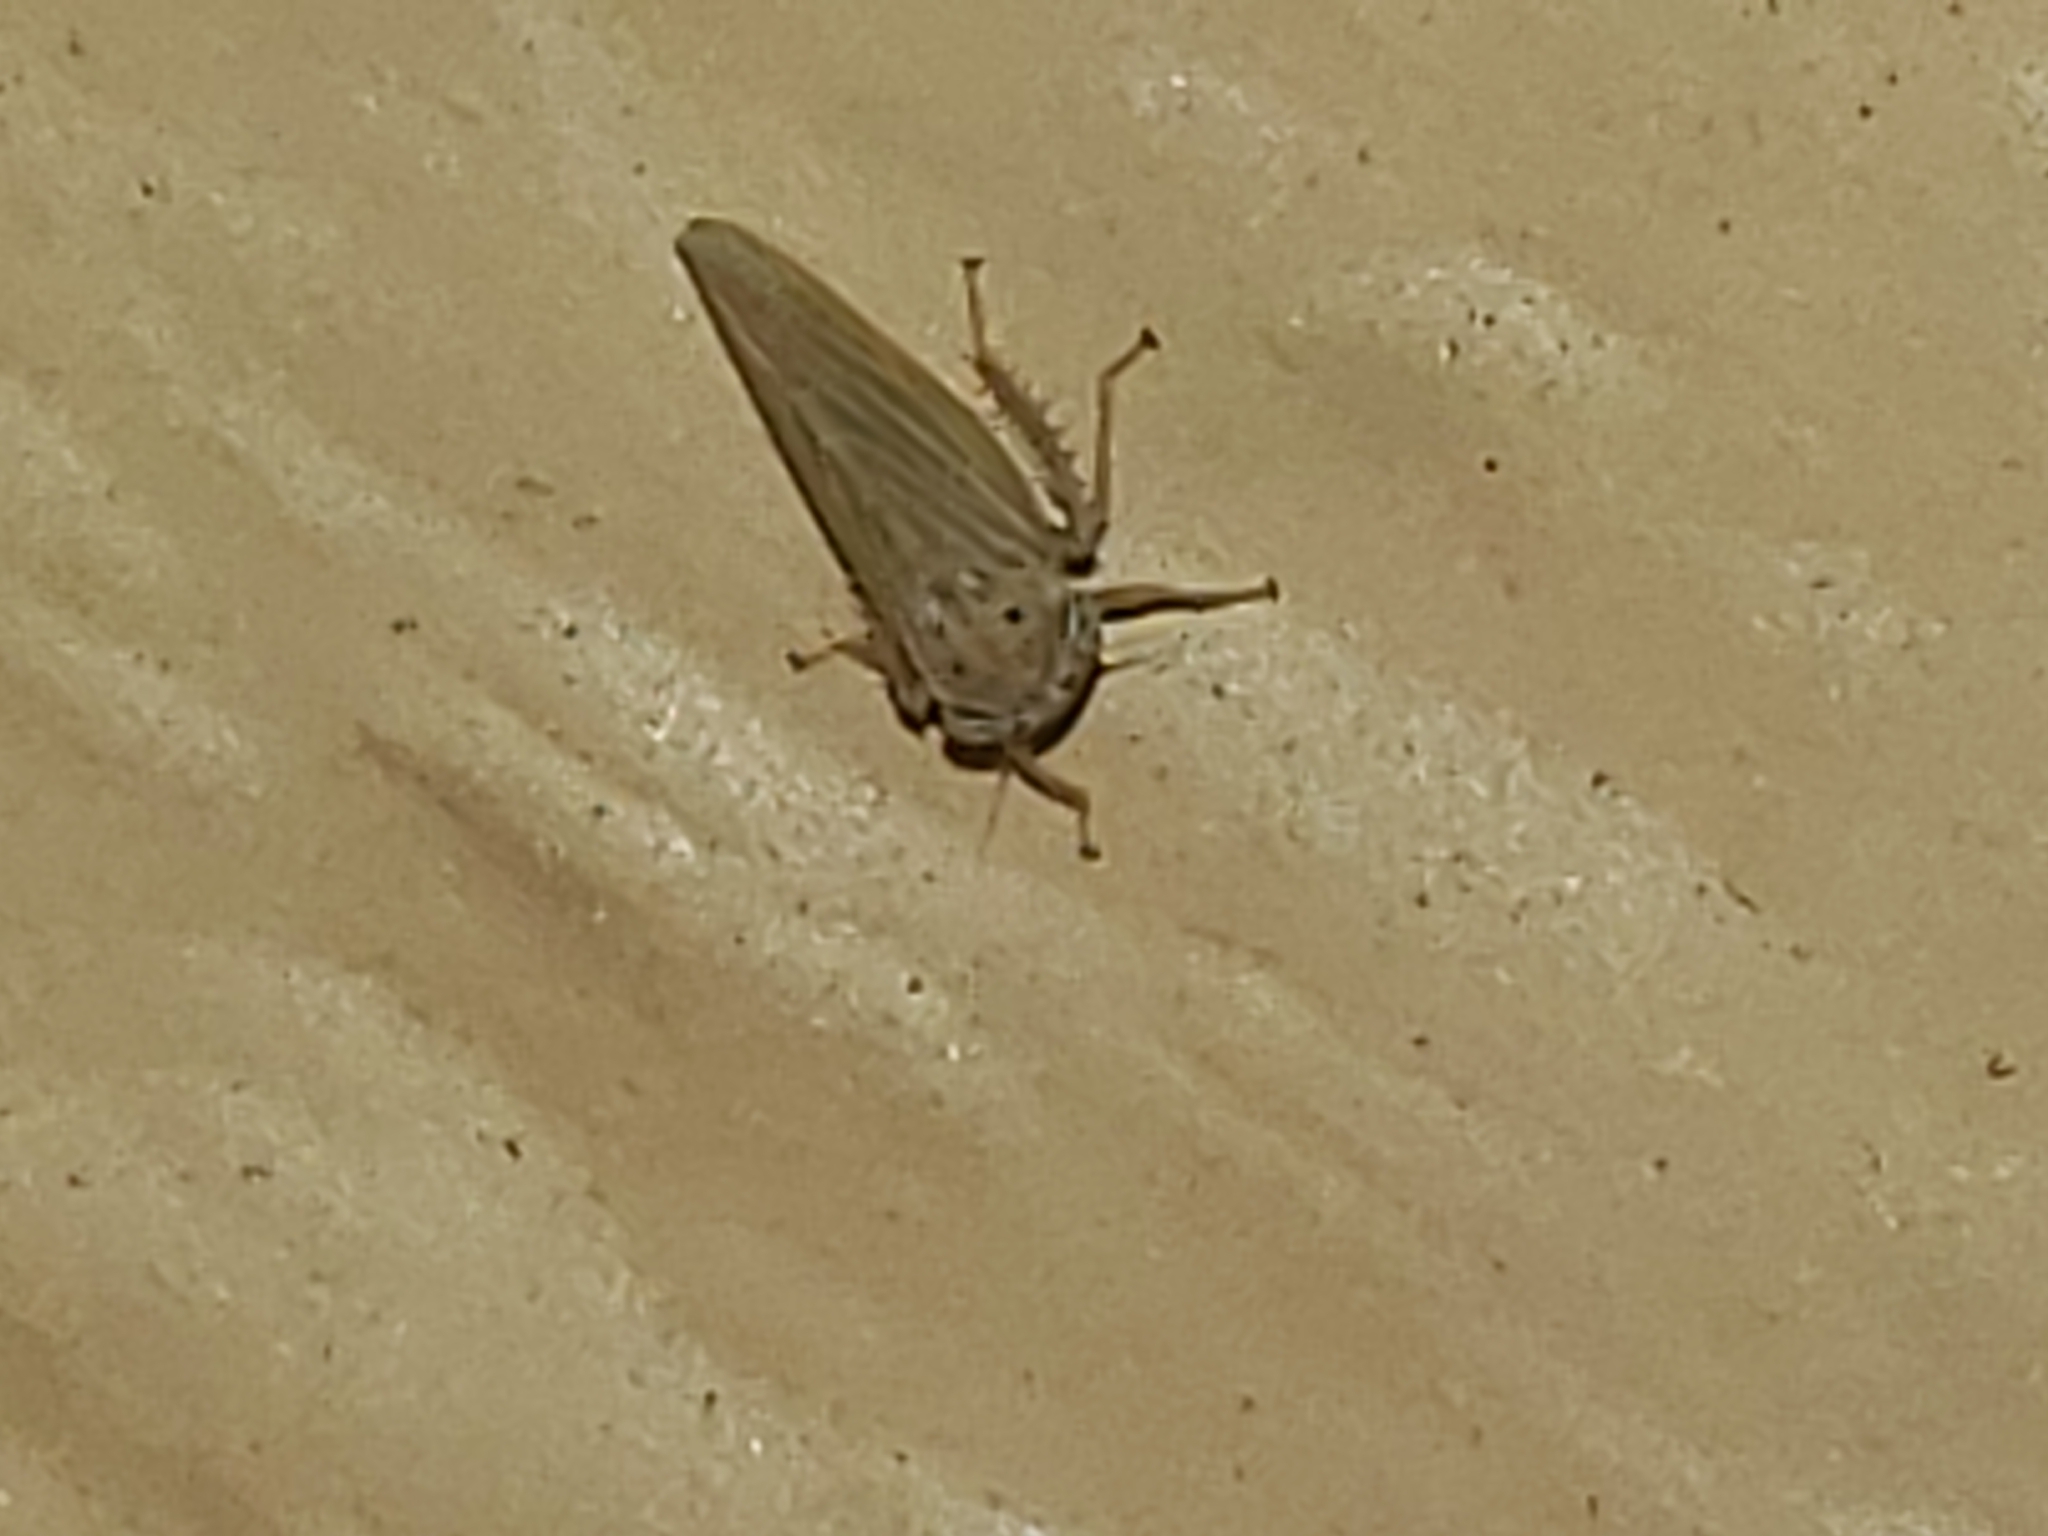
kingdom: Animalia
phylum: Arthropoda
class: Insecta
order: Hemiptera
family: Cicadellidae
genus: Agallia
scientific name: Agallia constricta
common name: The constricted leafhopper
